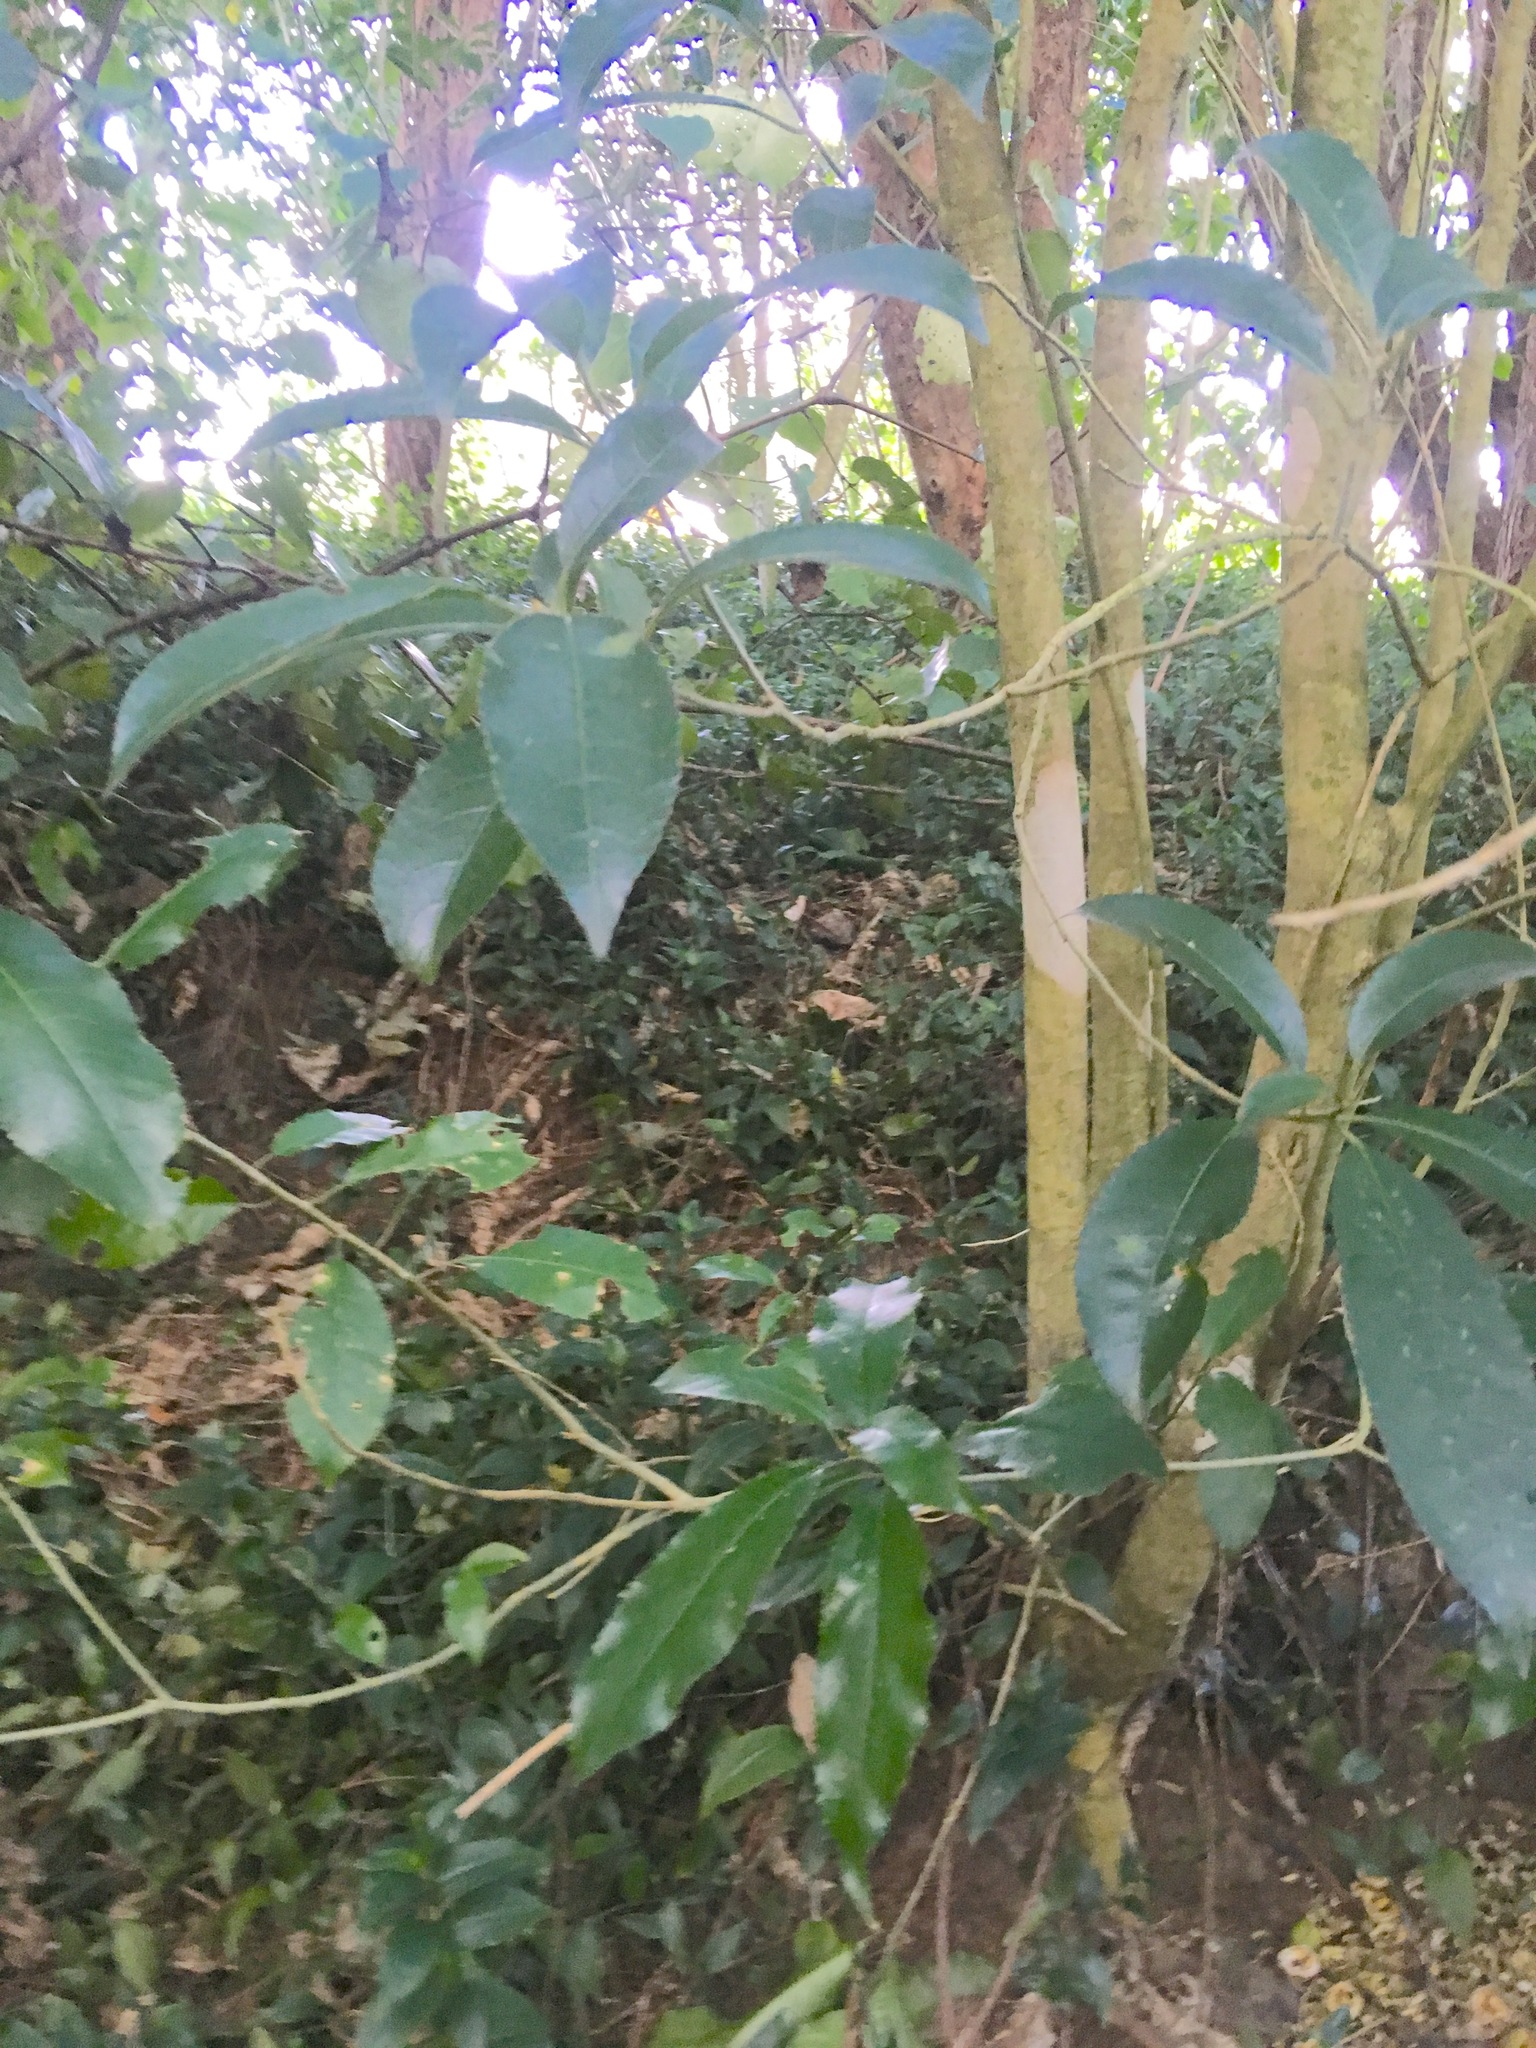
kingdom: Plantae
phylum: Tracheophyta
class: Magnoliopsida
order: Malpighiales
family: Violaceae
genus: Melicytus
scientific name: Melicytus ramiflorus
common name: Mahoe
